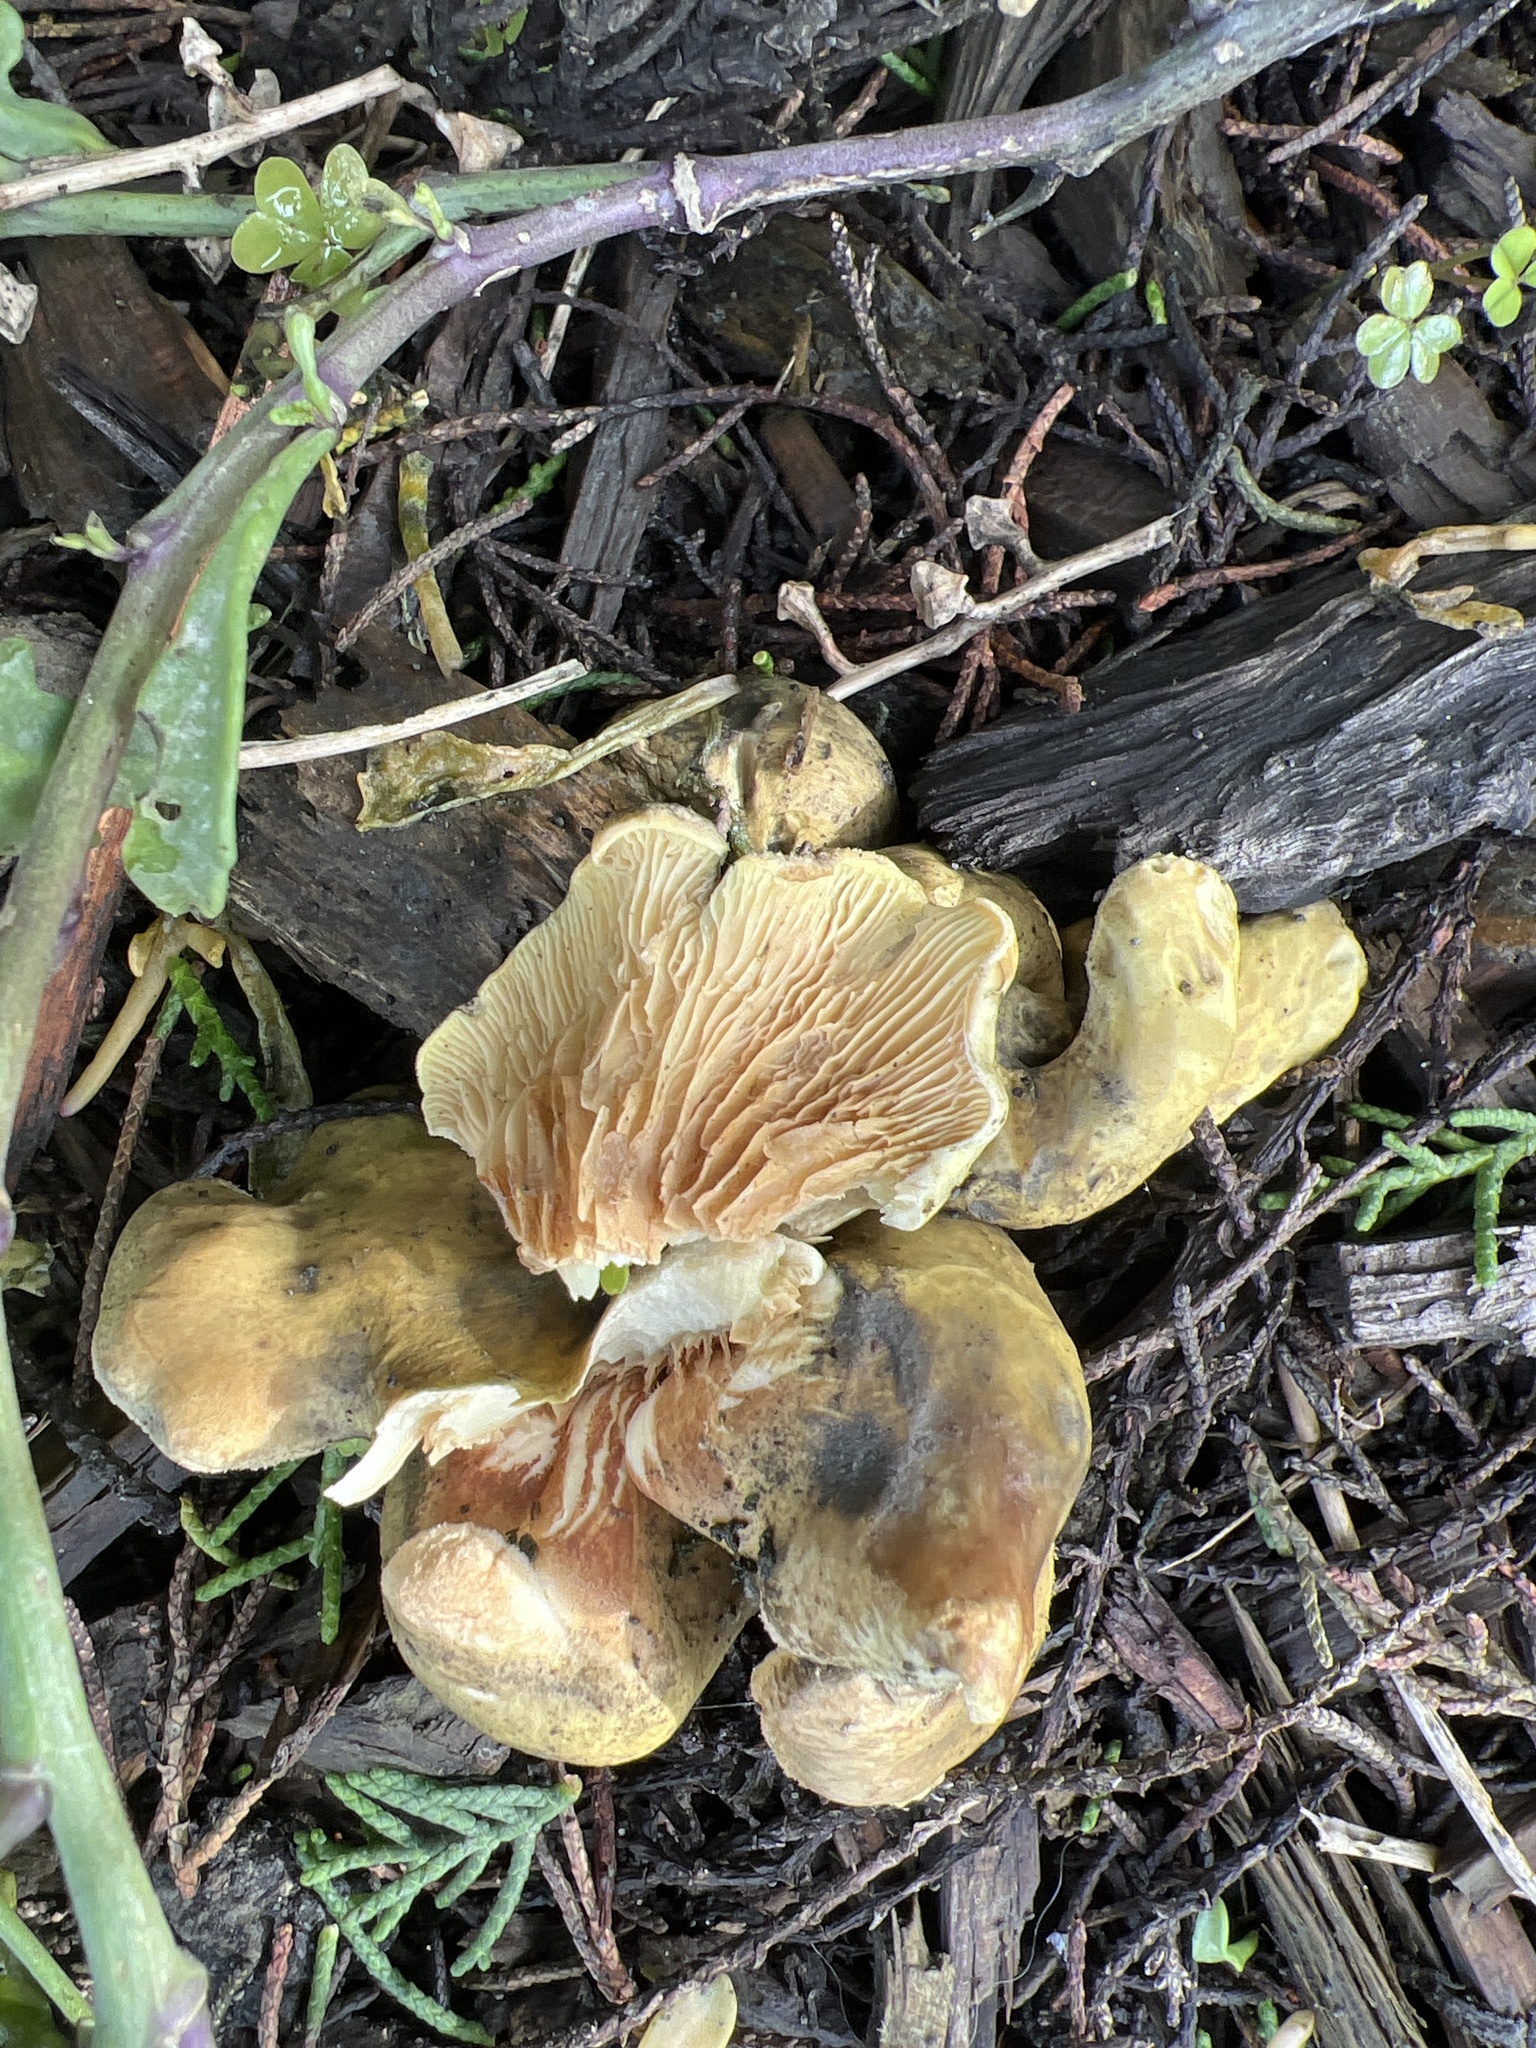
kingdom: Fungi
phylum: Basidiomycota
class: Agaricomycetes
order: Boletales
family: Tapinellaceae
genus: Tapinella
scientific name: Tapinella panuoides
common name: Oyster rollrim
